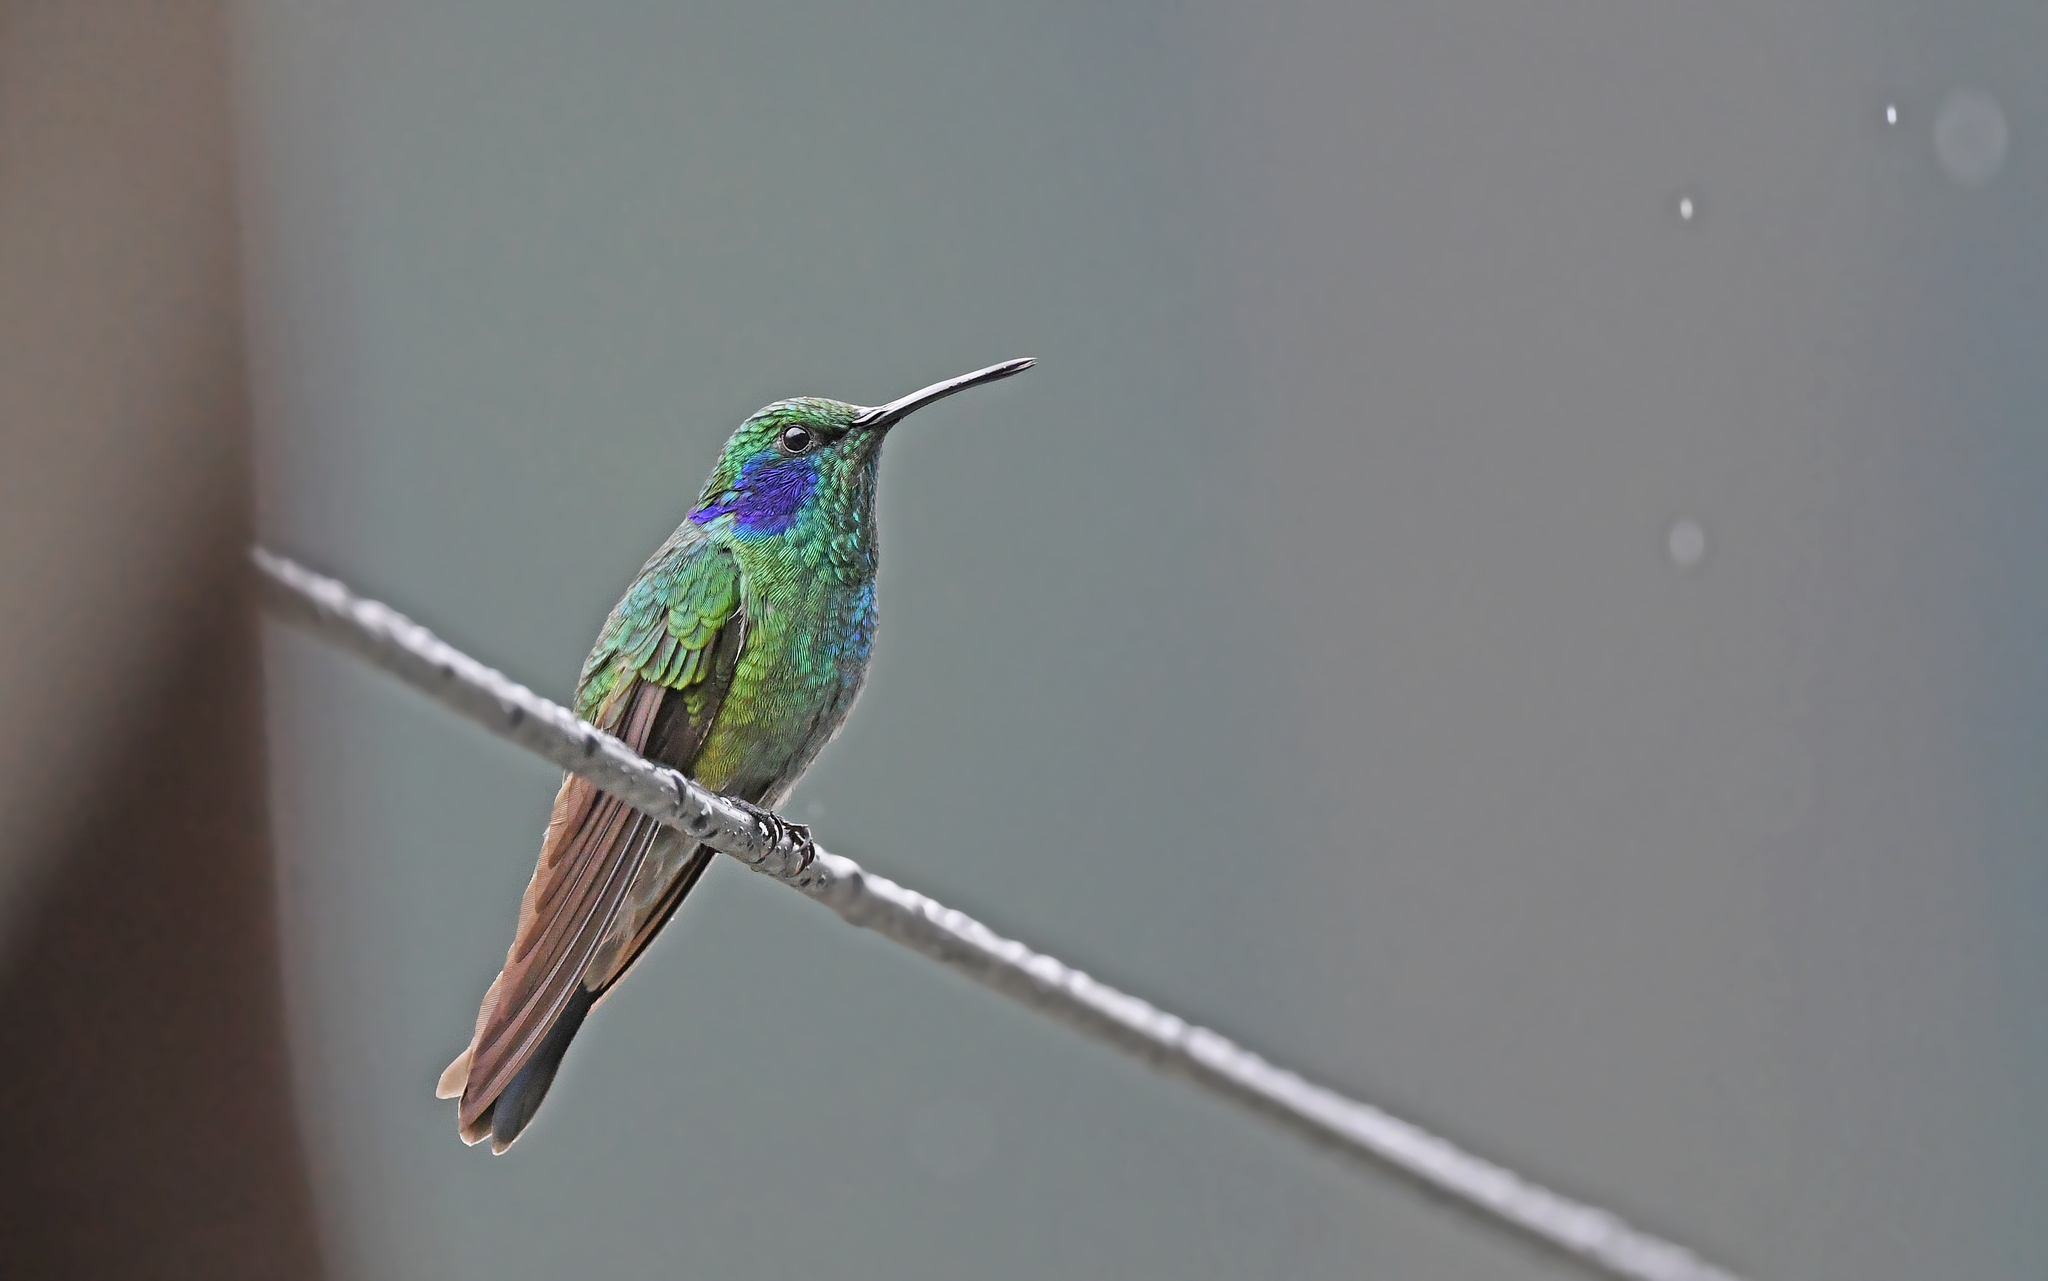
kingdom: Animalia
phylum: Chordata
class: Aves
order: Apodiformes
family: Trochilidae
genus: Colibri
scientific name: Colibri cyanotus
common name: Lesser violetear
